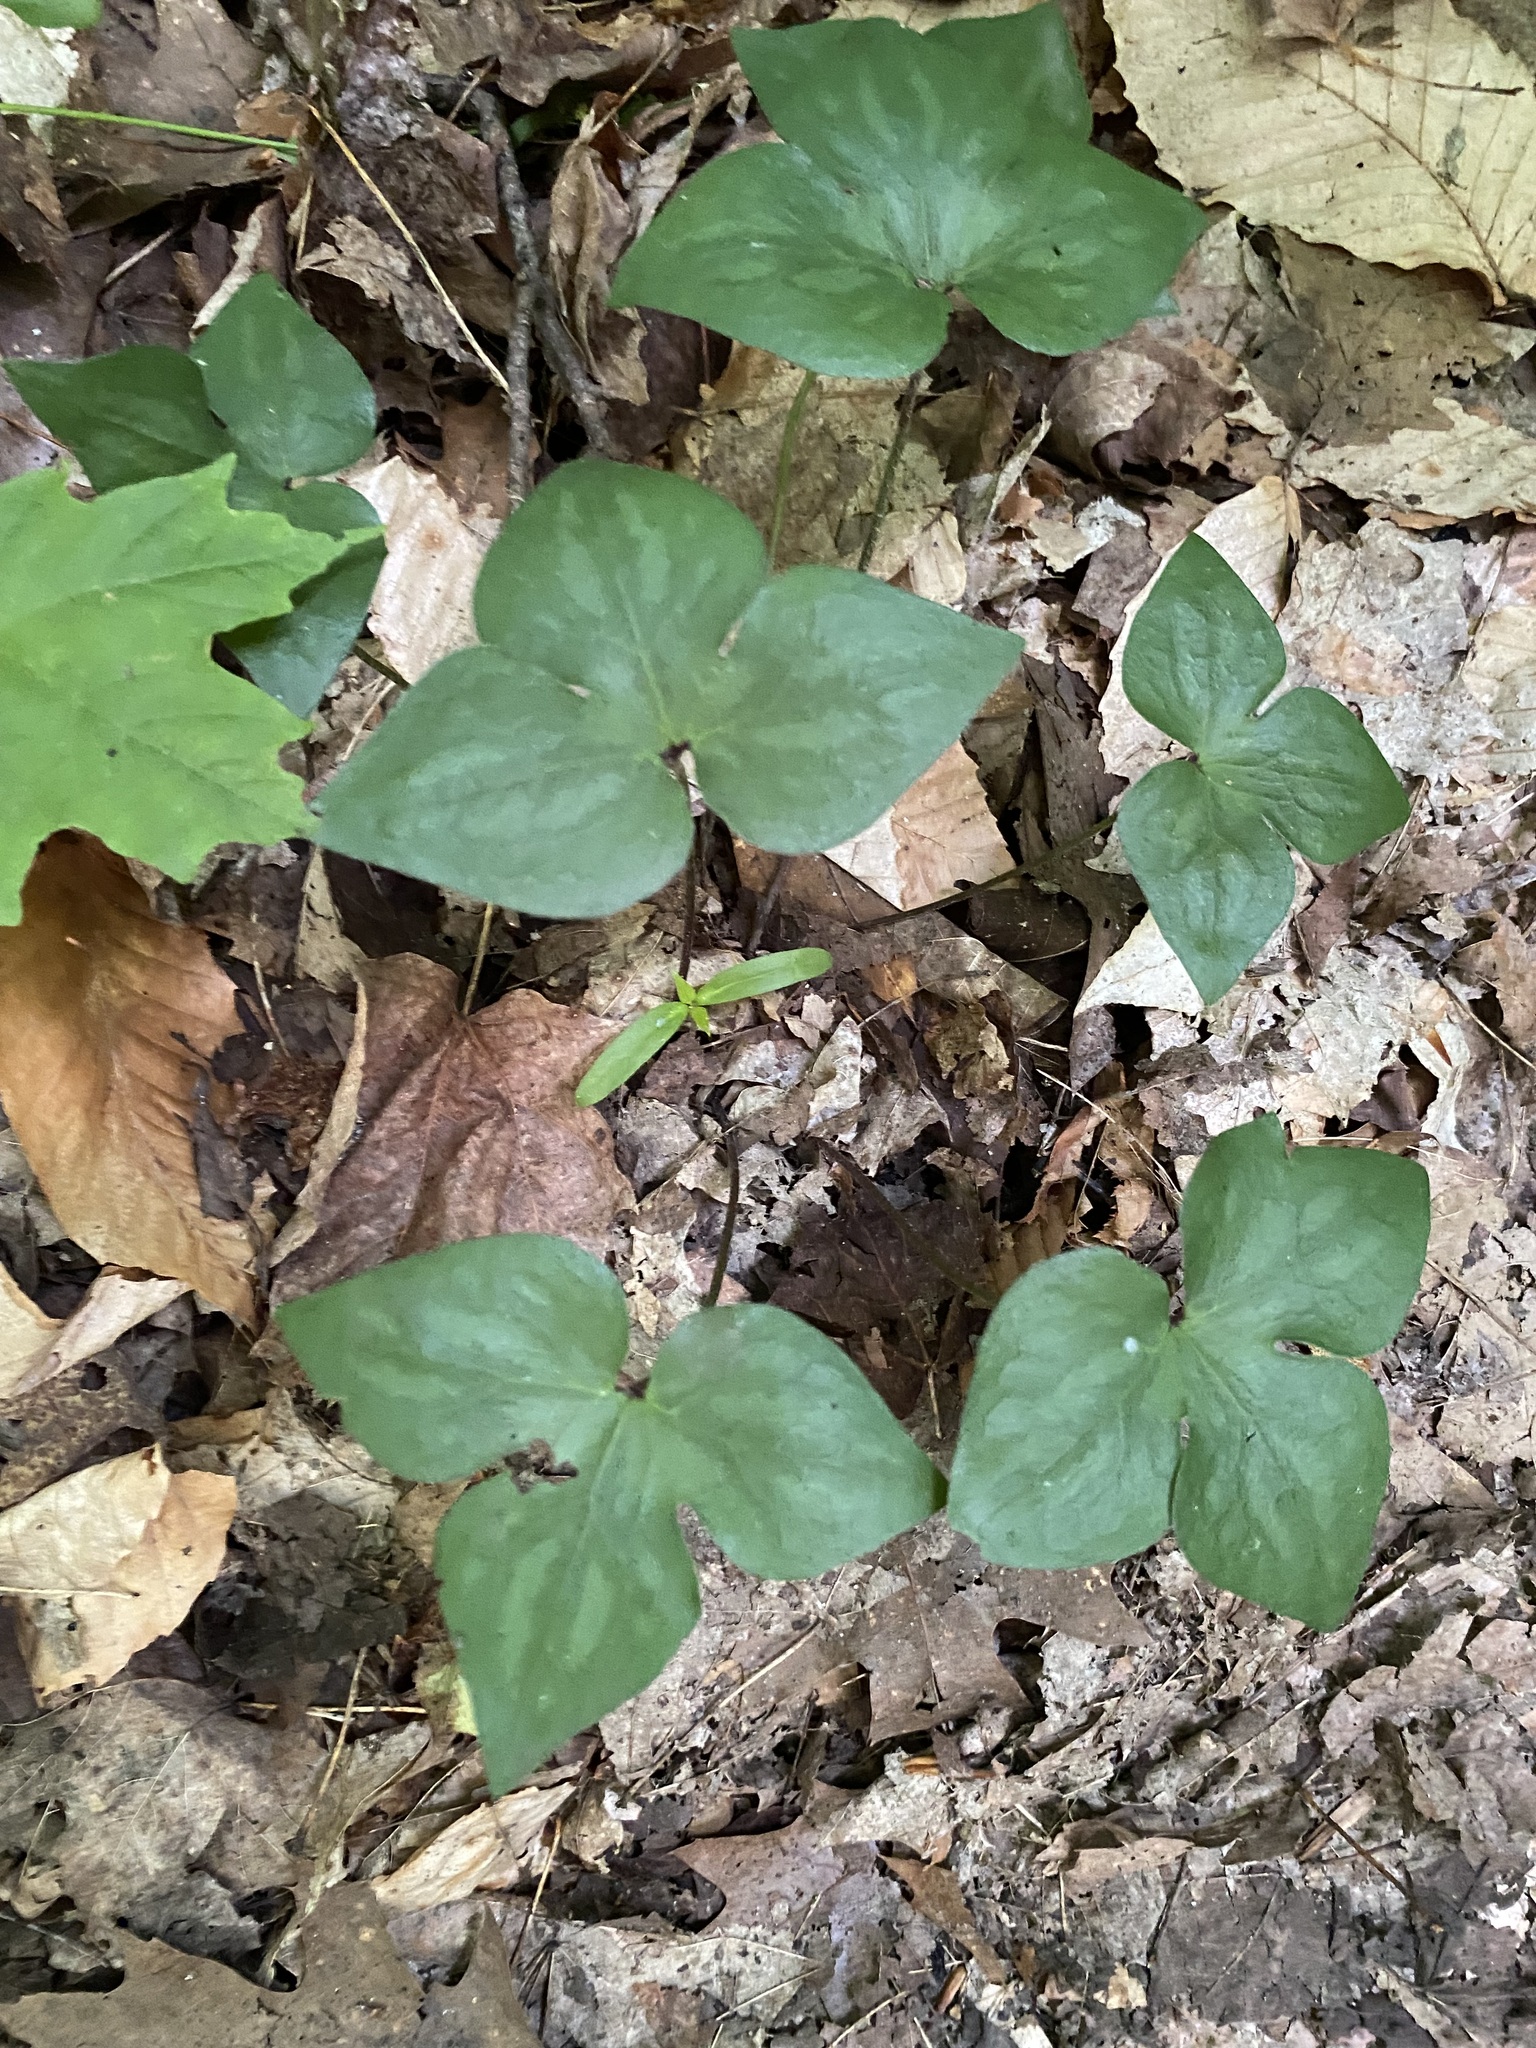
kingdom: Plantae
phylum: Tracheophyta
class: Magnoliopsida
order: Ranunculales
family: Ranunculaceae
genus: Hepatica
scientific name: Hepatica acutiloba
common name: Sharp-lobed hepatica
